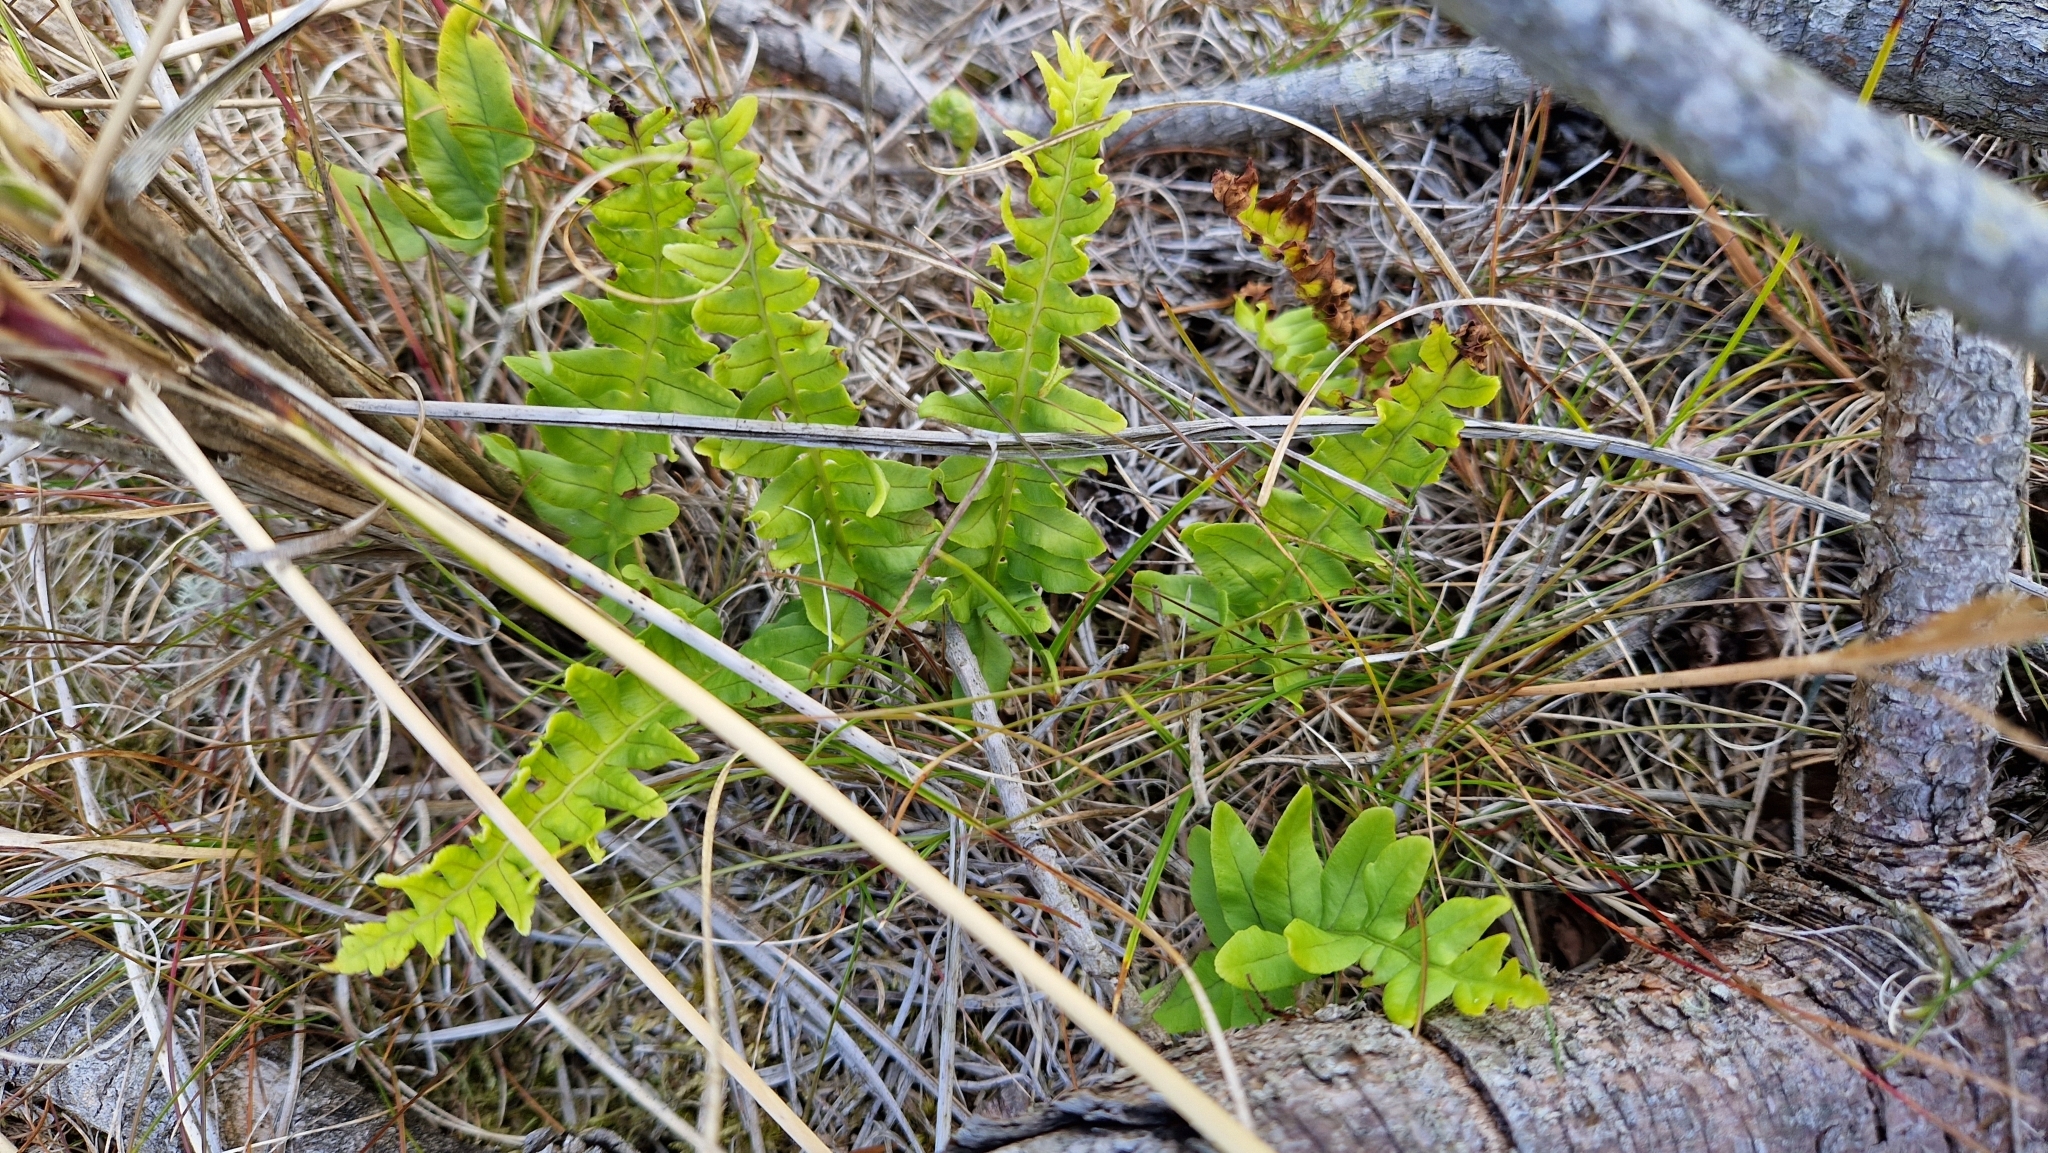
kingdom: Plantae
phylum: Tracheophyta
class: Polypodiopsida
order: Polypodiales
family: Polypodiaceae
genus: Polypodium
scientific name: Polypodium vulgare
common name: Common polypody
